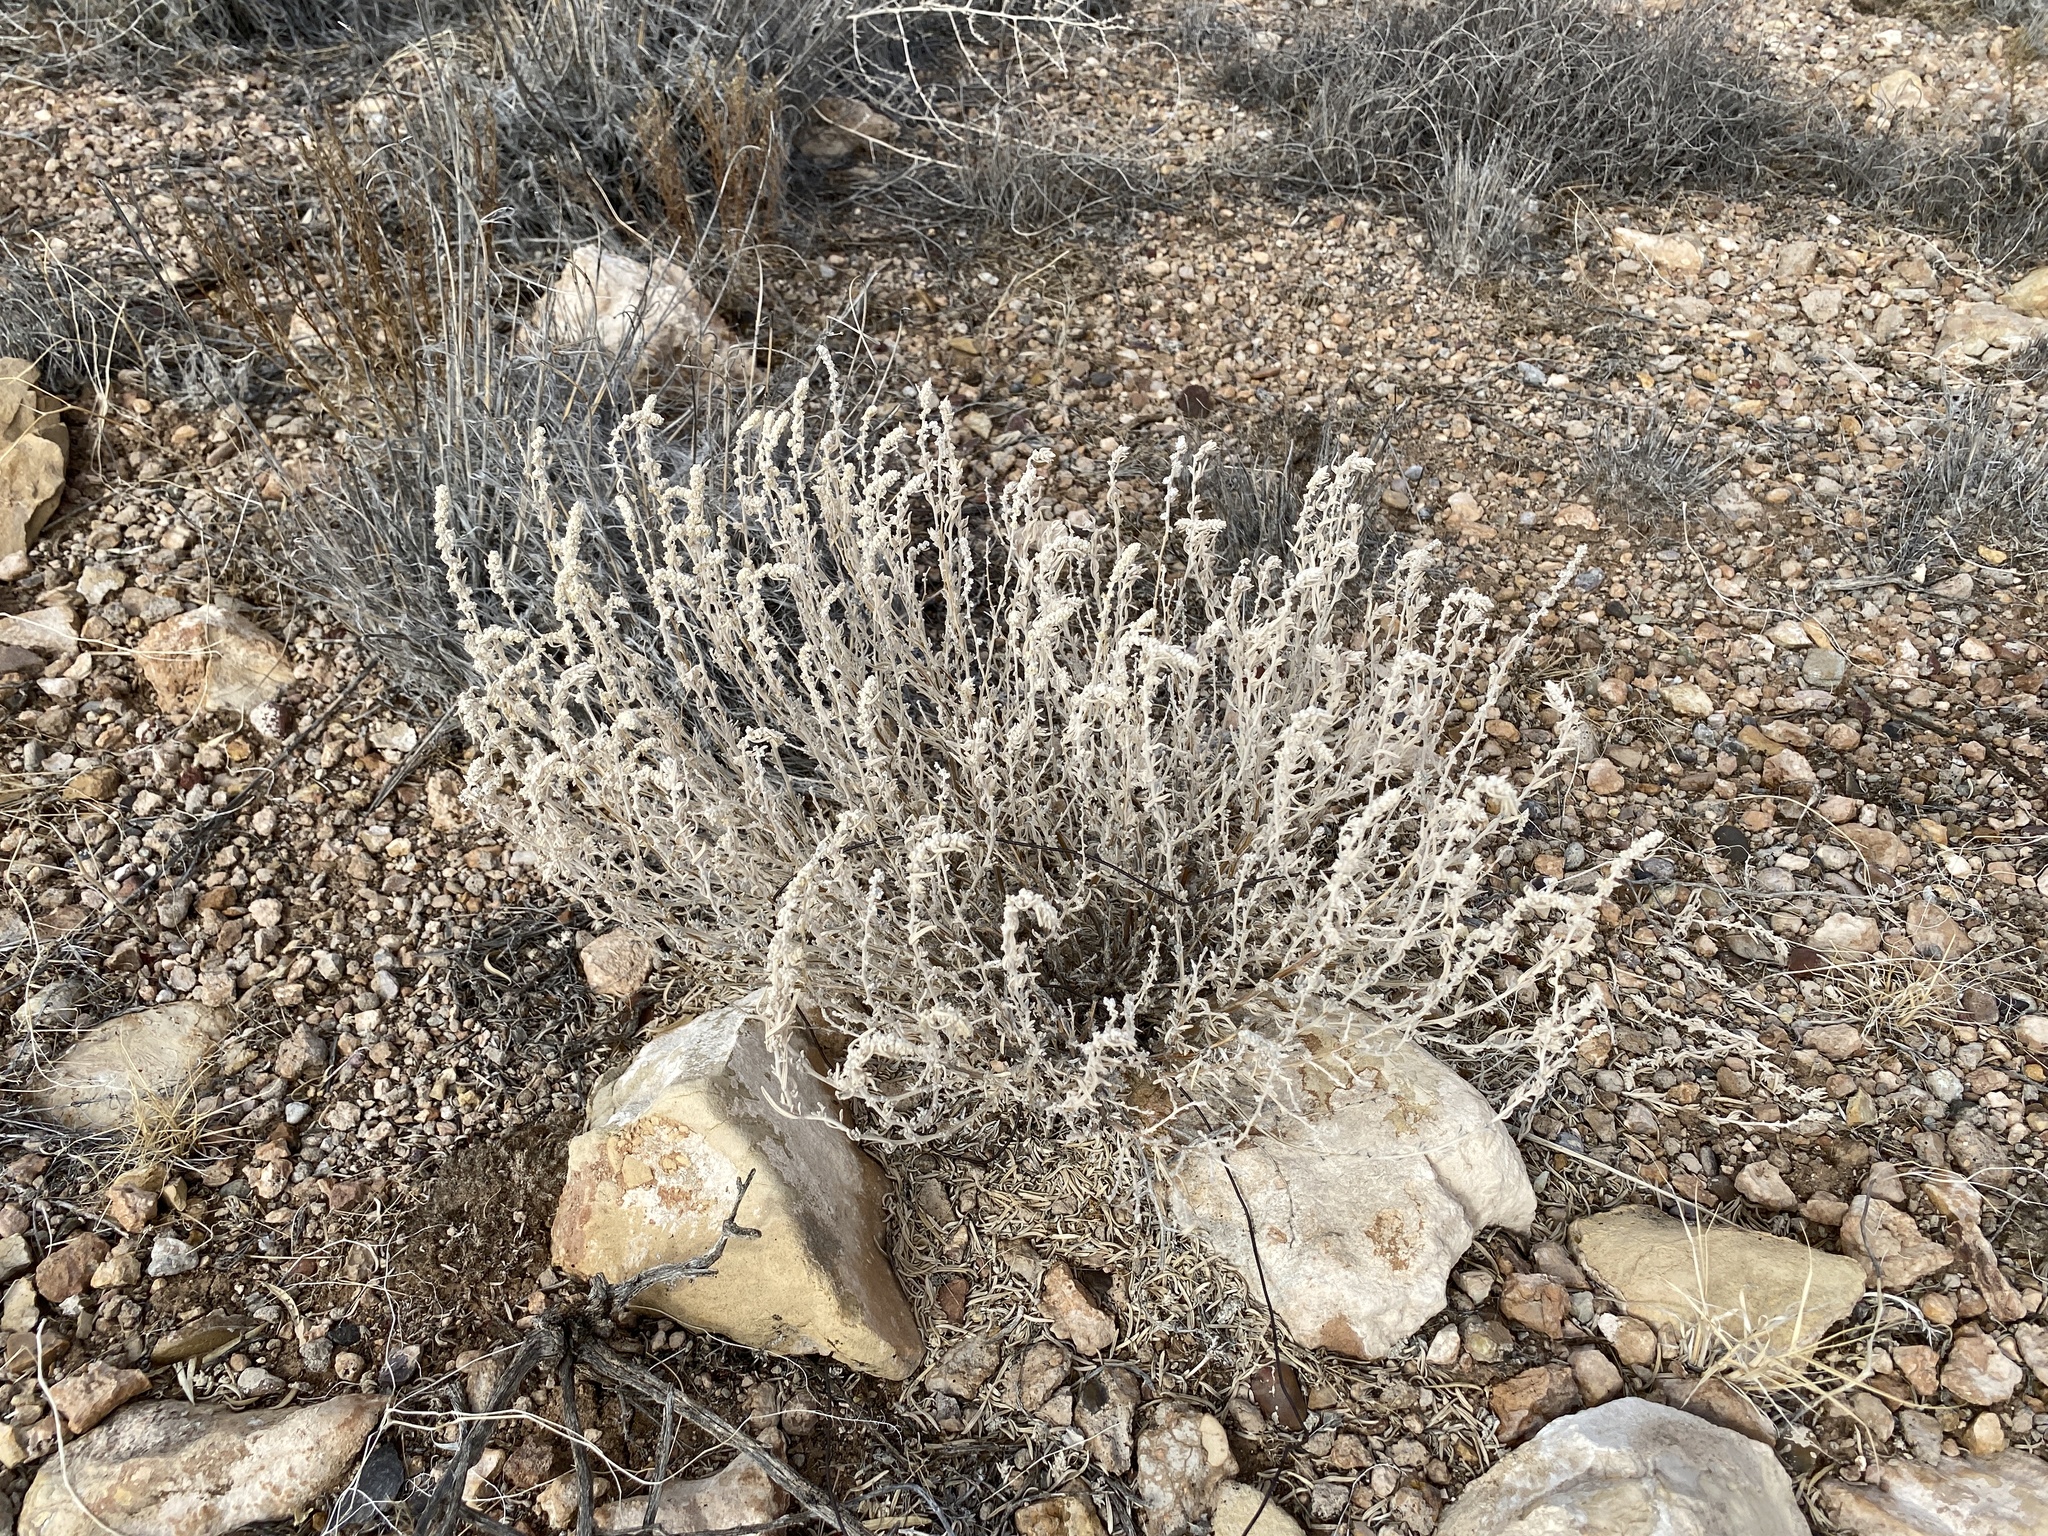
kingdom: Plantae
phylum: Tracheophyta
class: Magnoliopsida
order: Caryophyllales
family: Amaranthaceae
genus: Krascheninnikovia
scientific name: Krascheninnikovia lanata
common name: Winterfat
